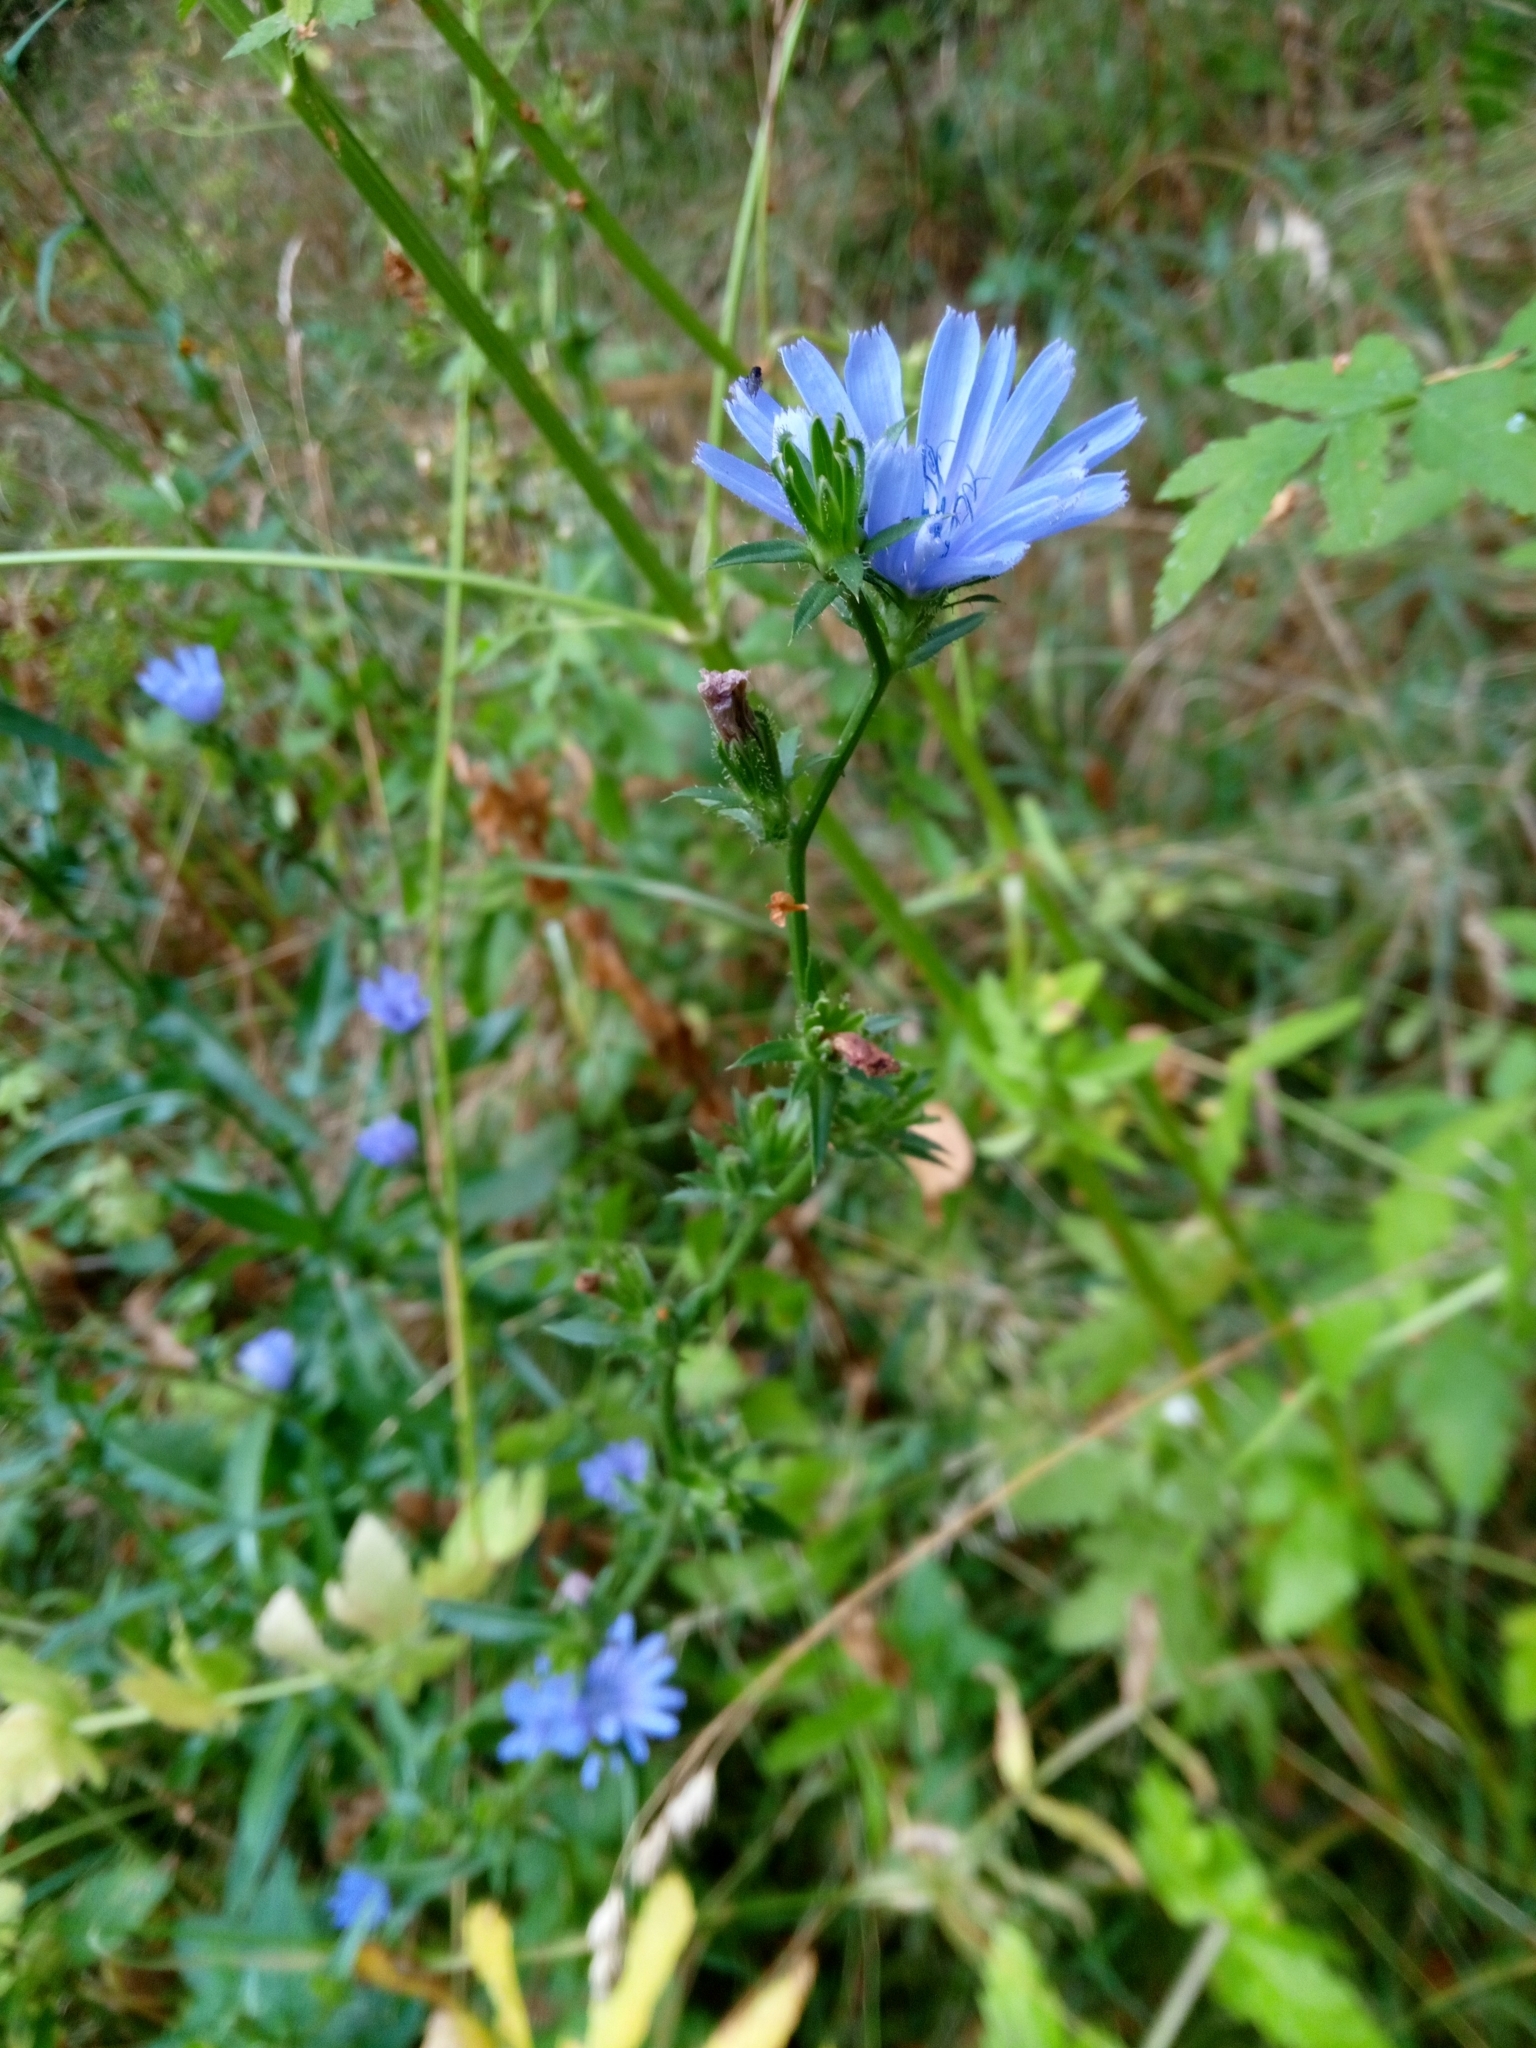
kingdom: Plantae
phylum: Tracheophyta
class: Magnoliopsida
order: Asterales
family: Asteraceae
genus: Cichorium
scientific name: Cichorium intybus
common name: Chicory
